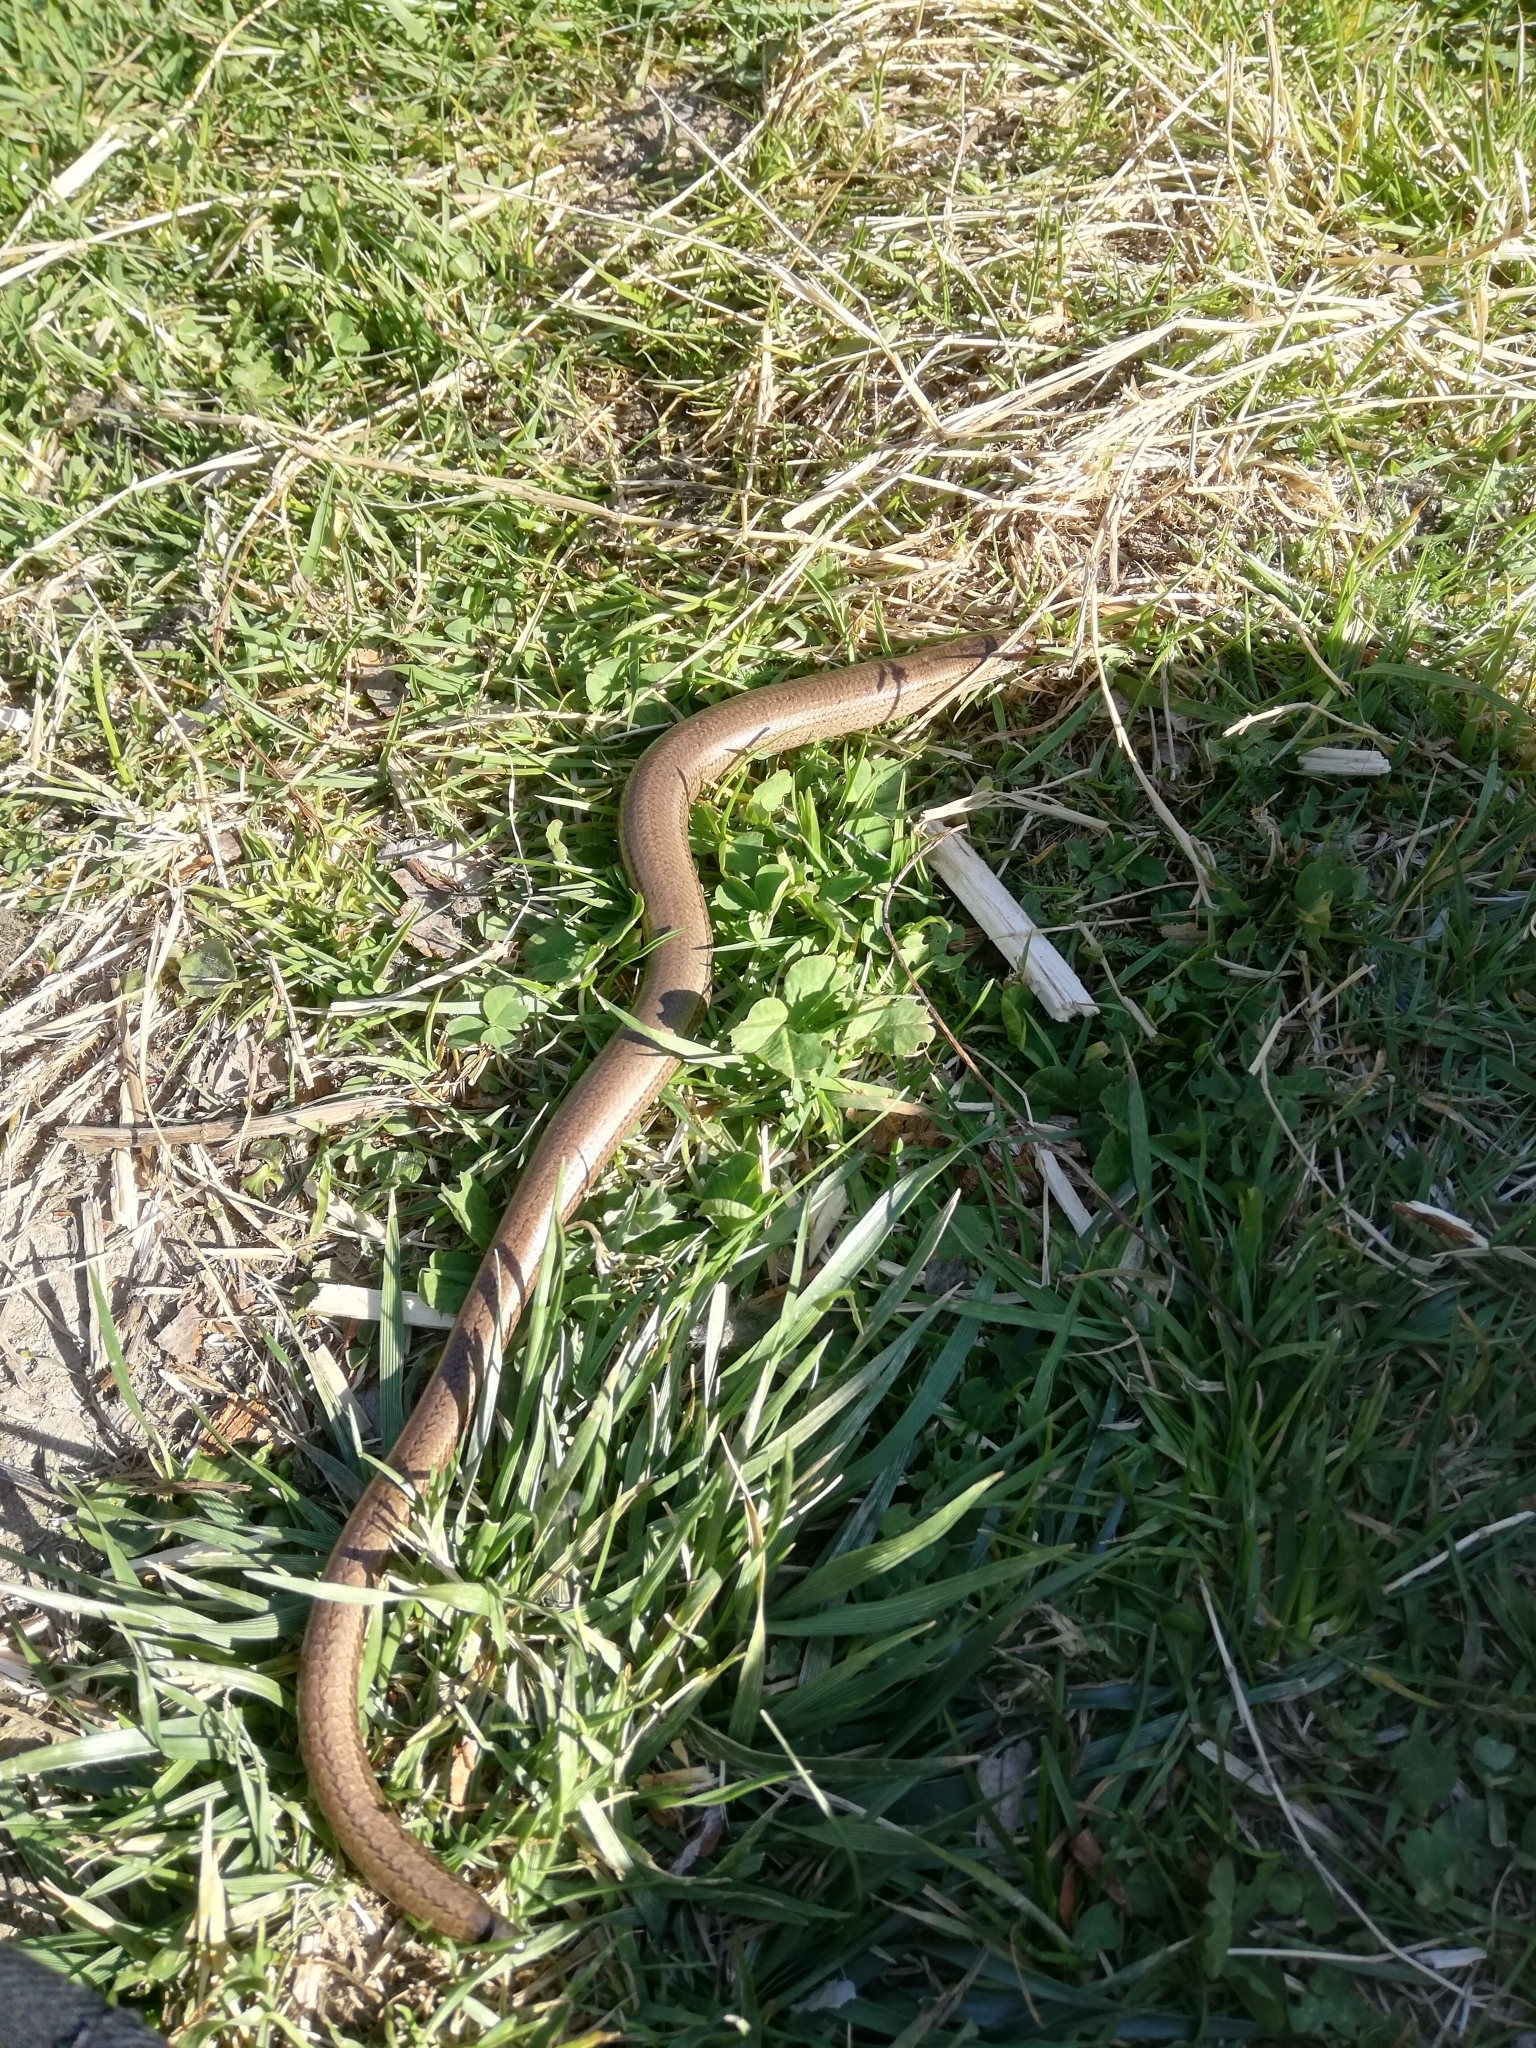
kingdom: Animalia
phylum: Chordata
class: Squamata
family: Anguidae
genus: Anguis
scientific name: Anguis fragilis
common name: Slow worm
